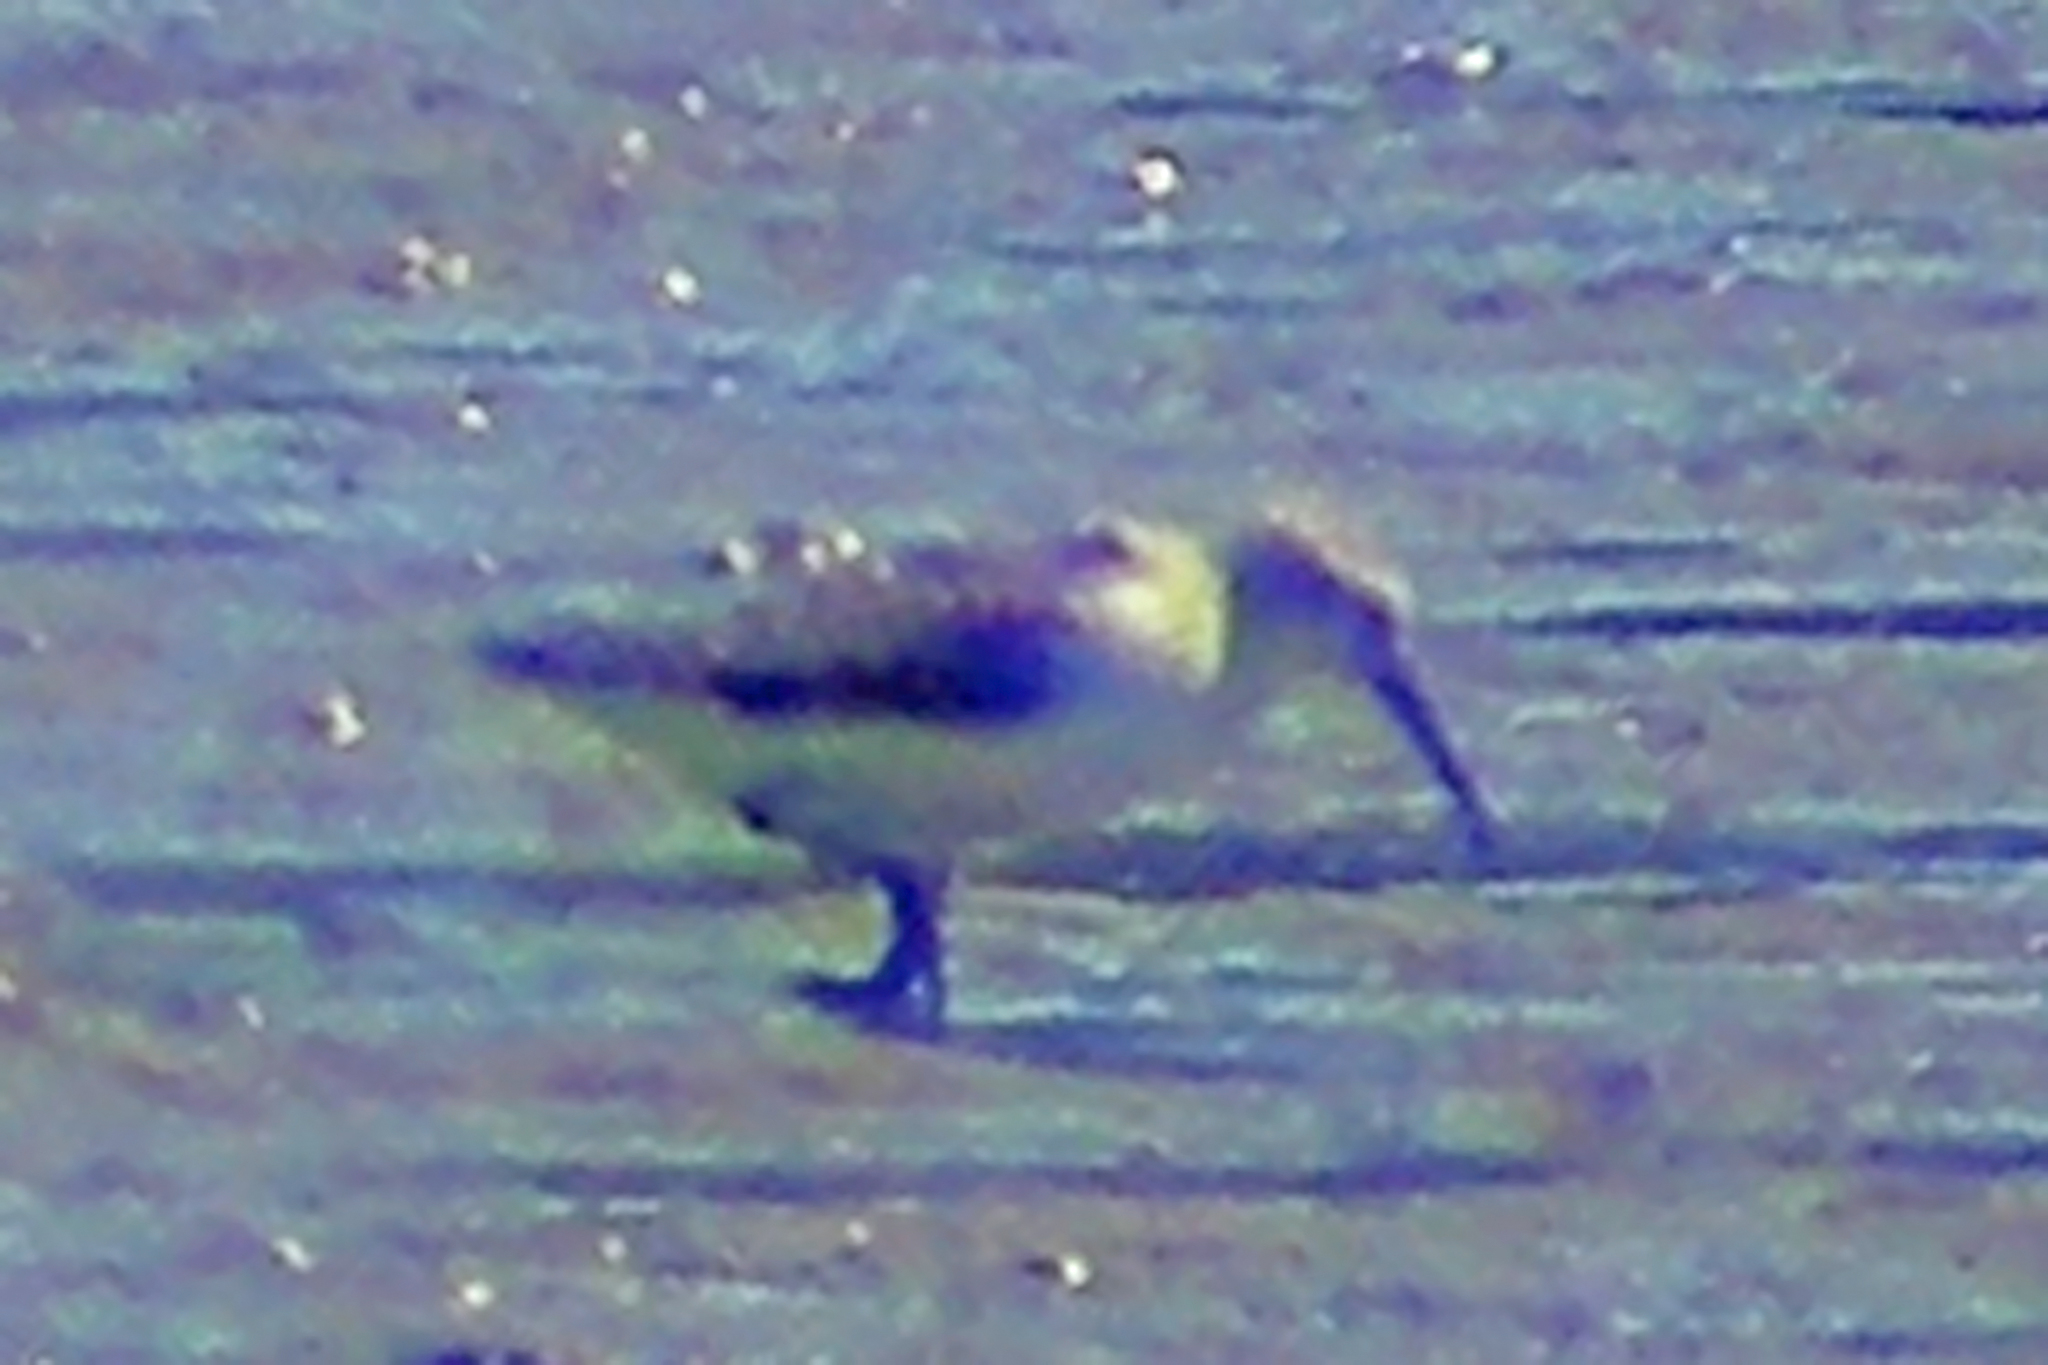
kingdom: Animalia
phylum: Chordata
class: Aves
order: Charadriiformes
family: Scolopacidae
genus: Calidris
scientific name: Calidris mauri
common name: Western sandpiper
